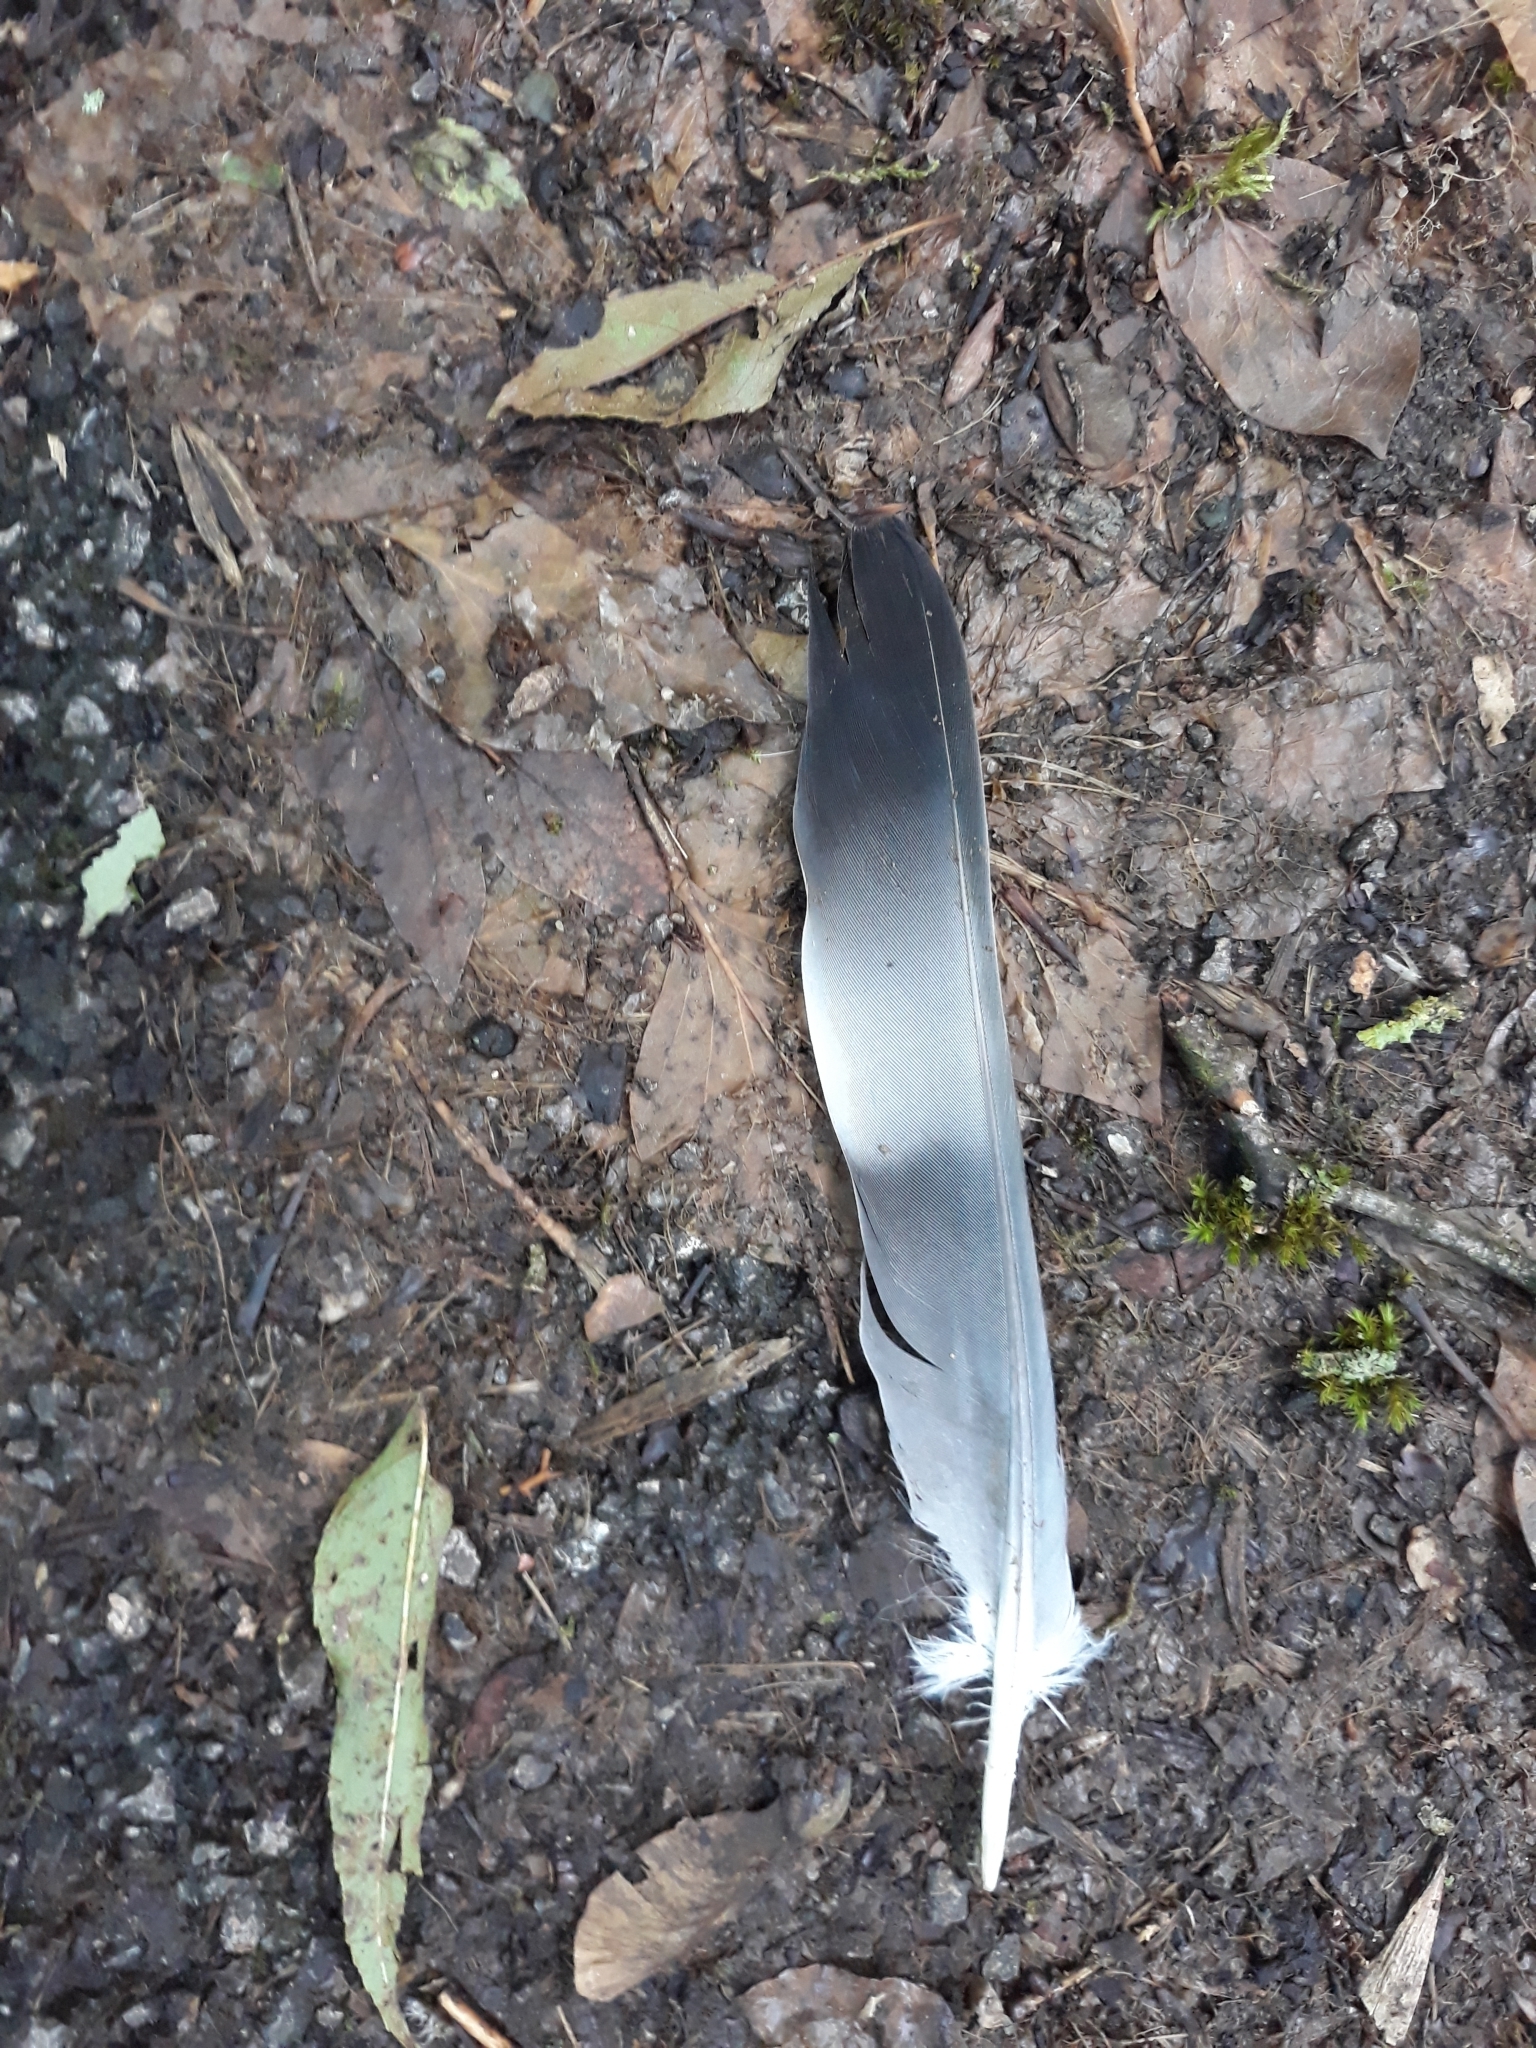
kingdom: Animalia
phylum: Chordata
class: Aves
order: Columbiformes
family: Columbidae
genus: Columba
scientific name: Columba palumbus
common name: Common wood pigeon
